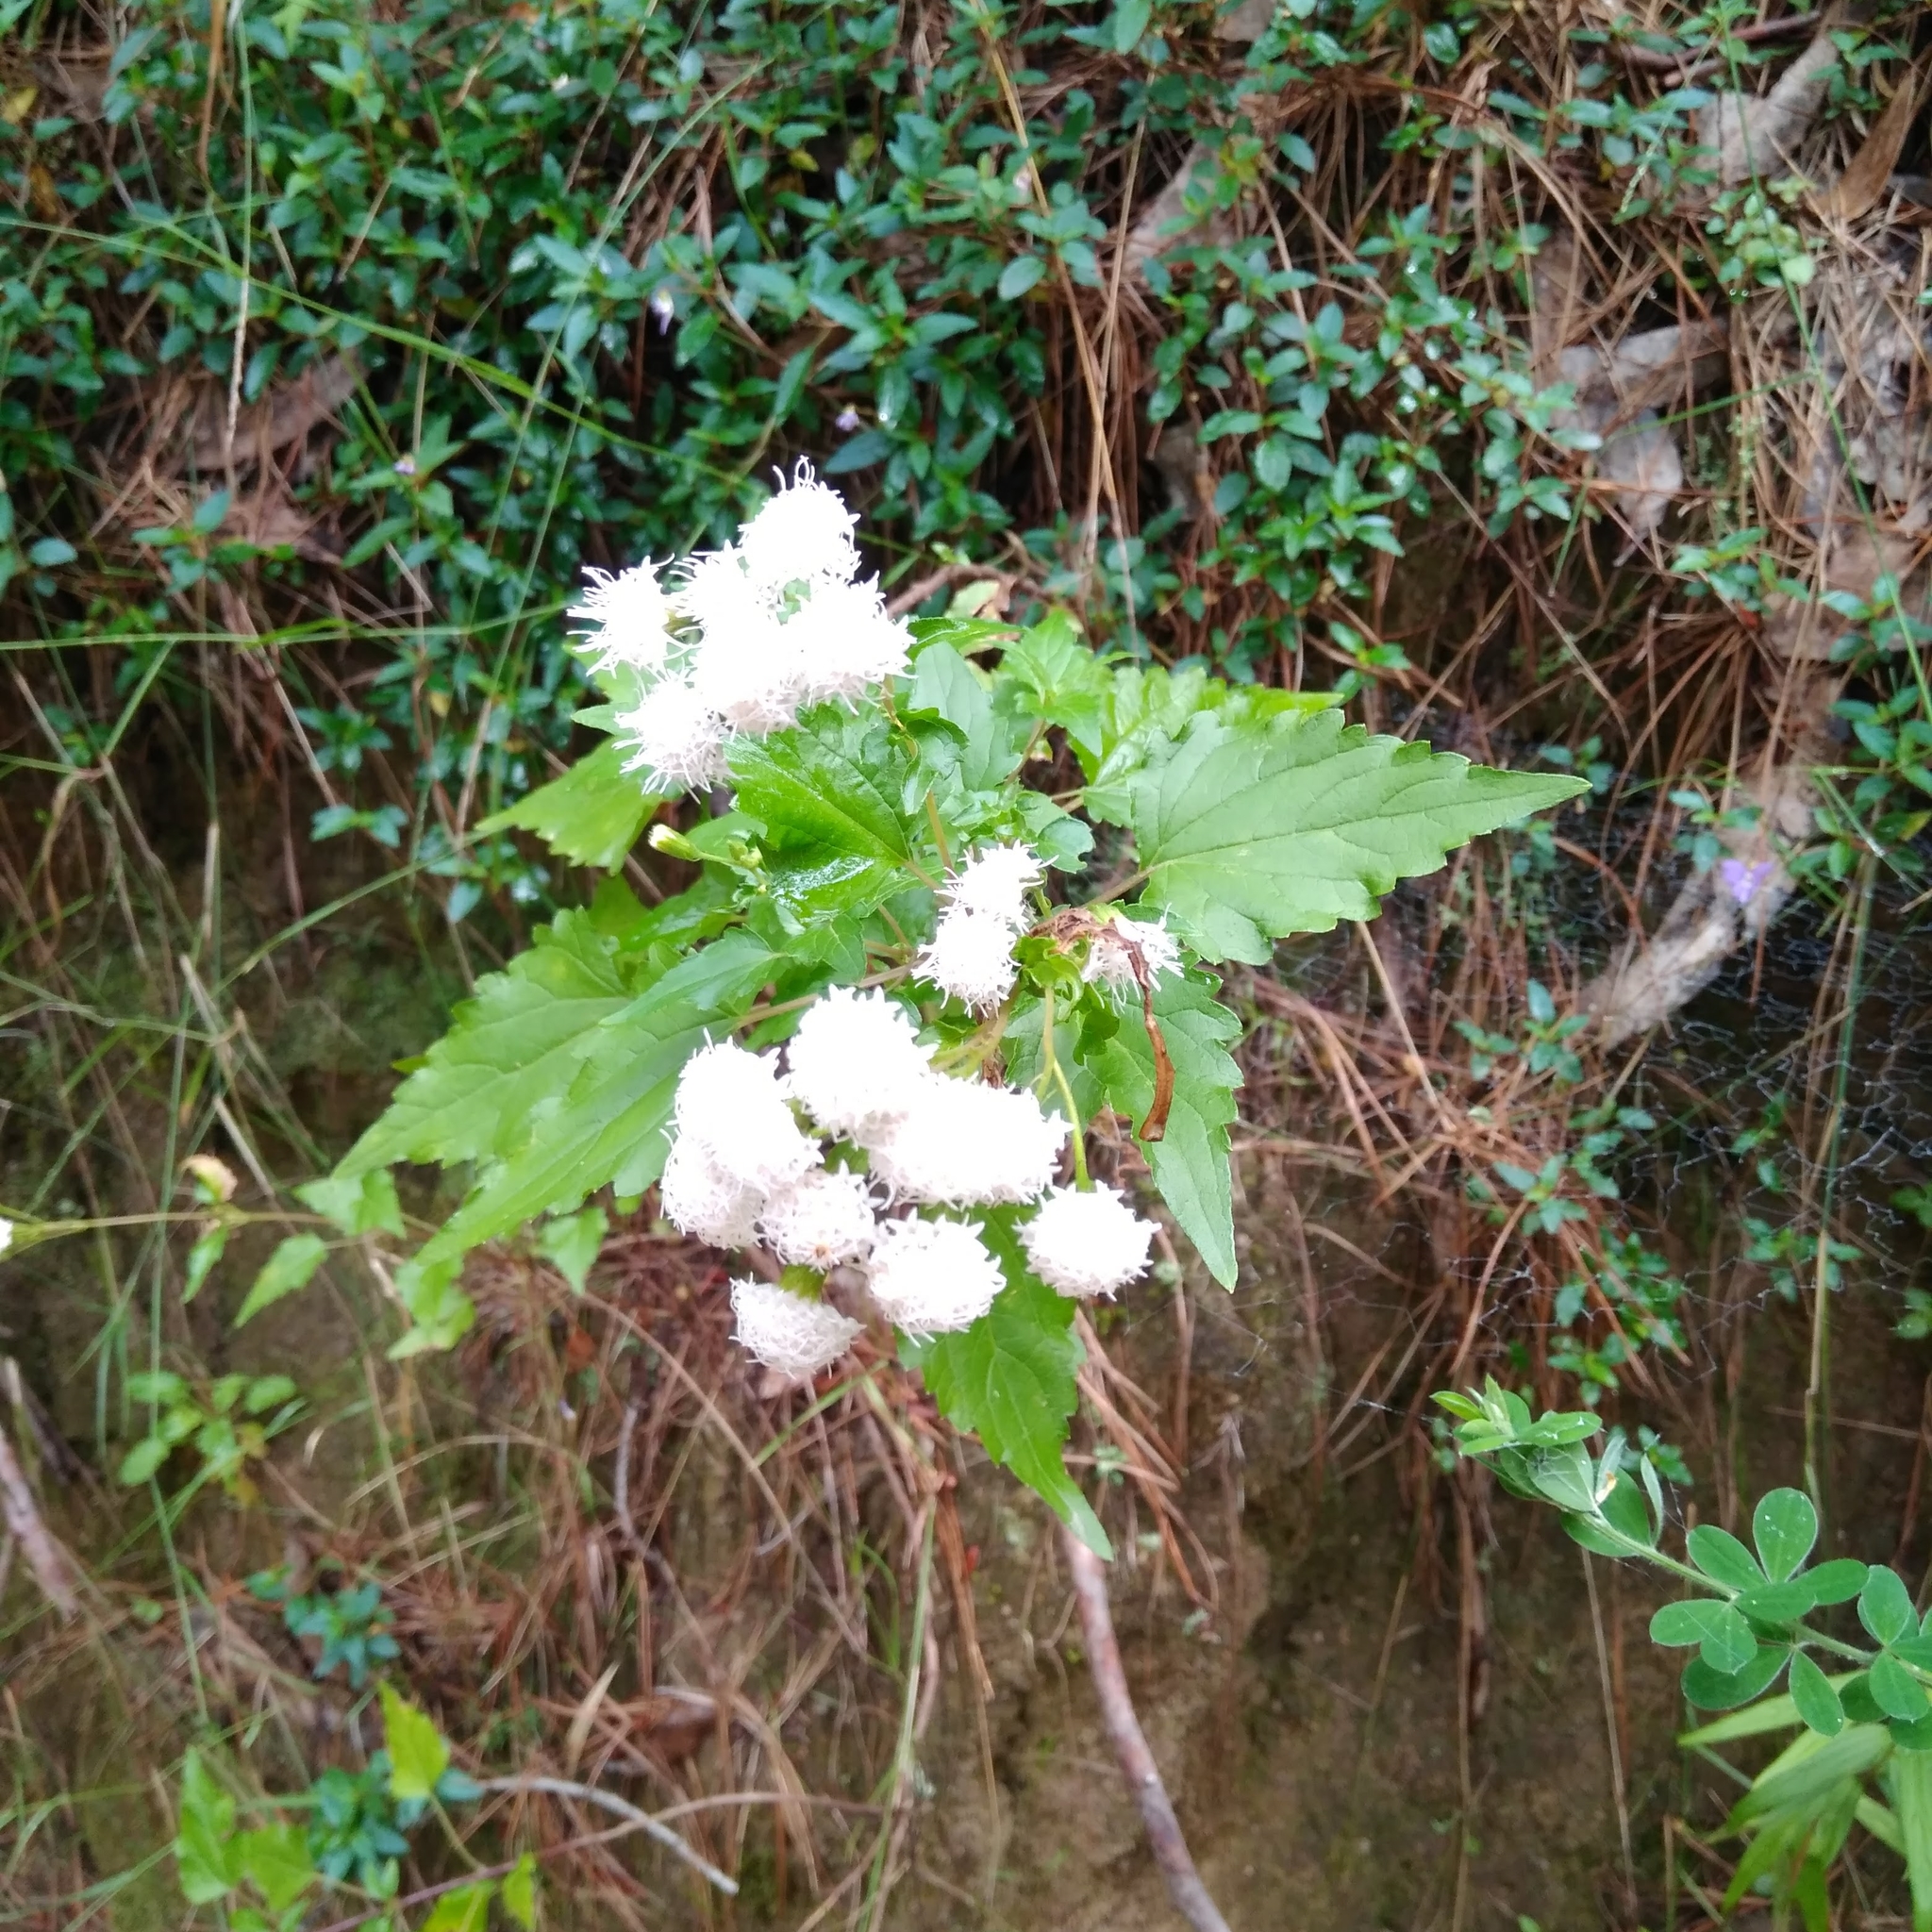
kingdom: Plantae
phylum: Tracheophyta
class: Magnoliopsida
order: Asterales
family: Asteraceae
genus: Ageratina
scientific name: Ageratina glechonophylla
